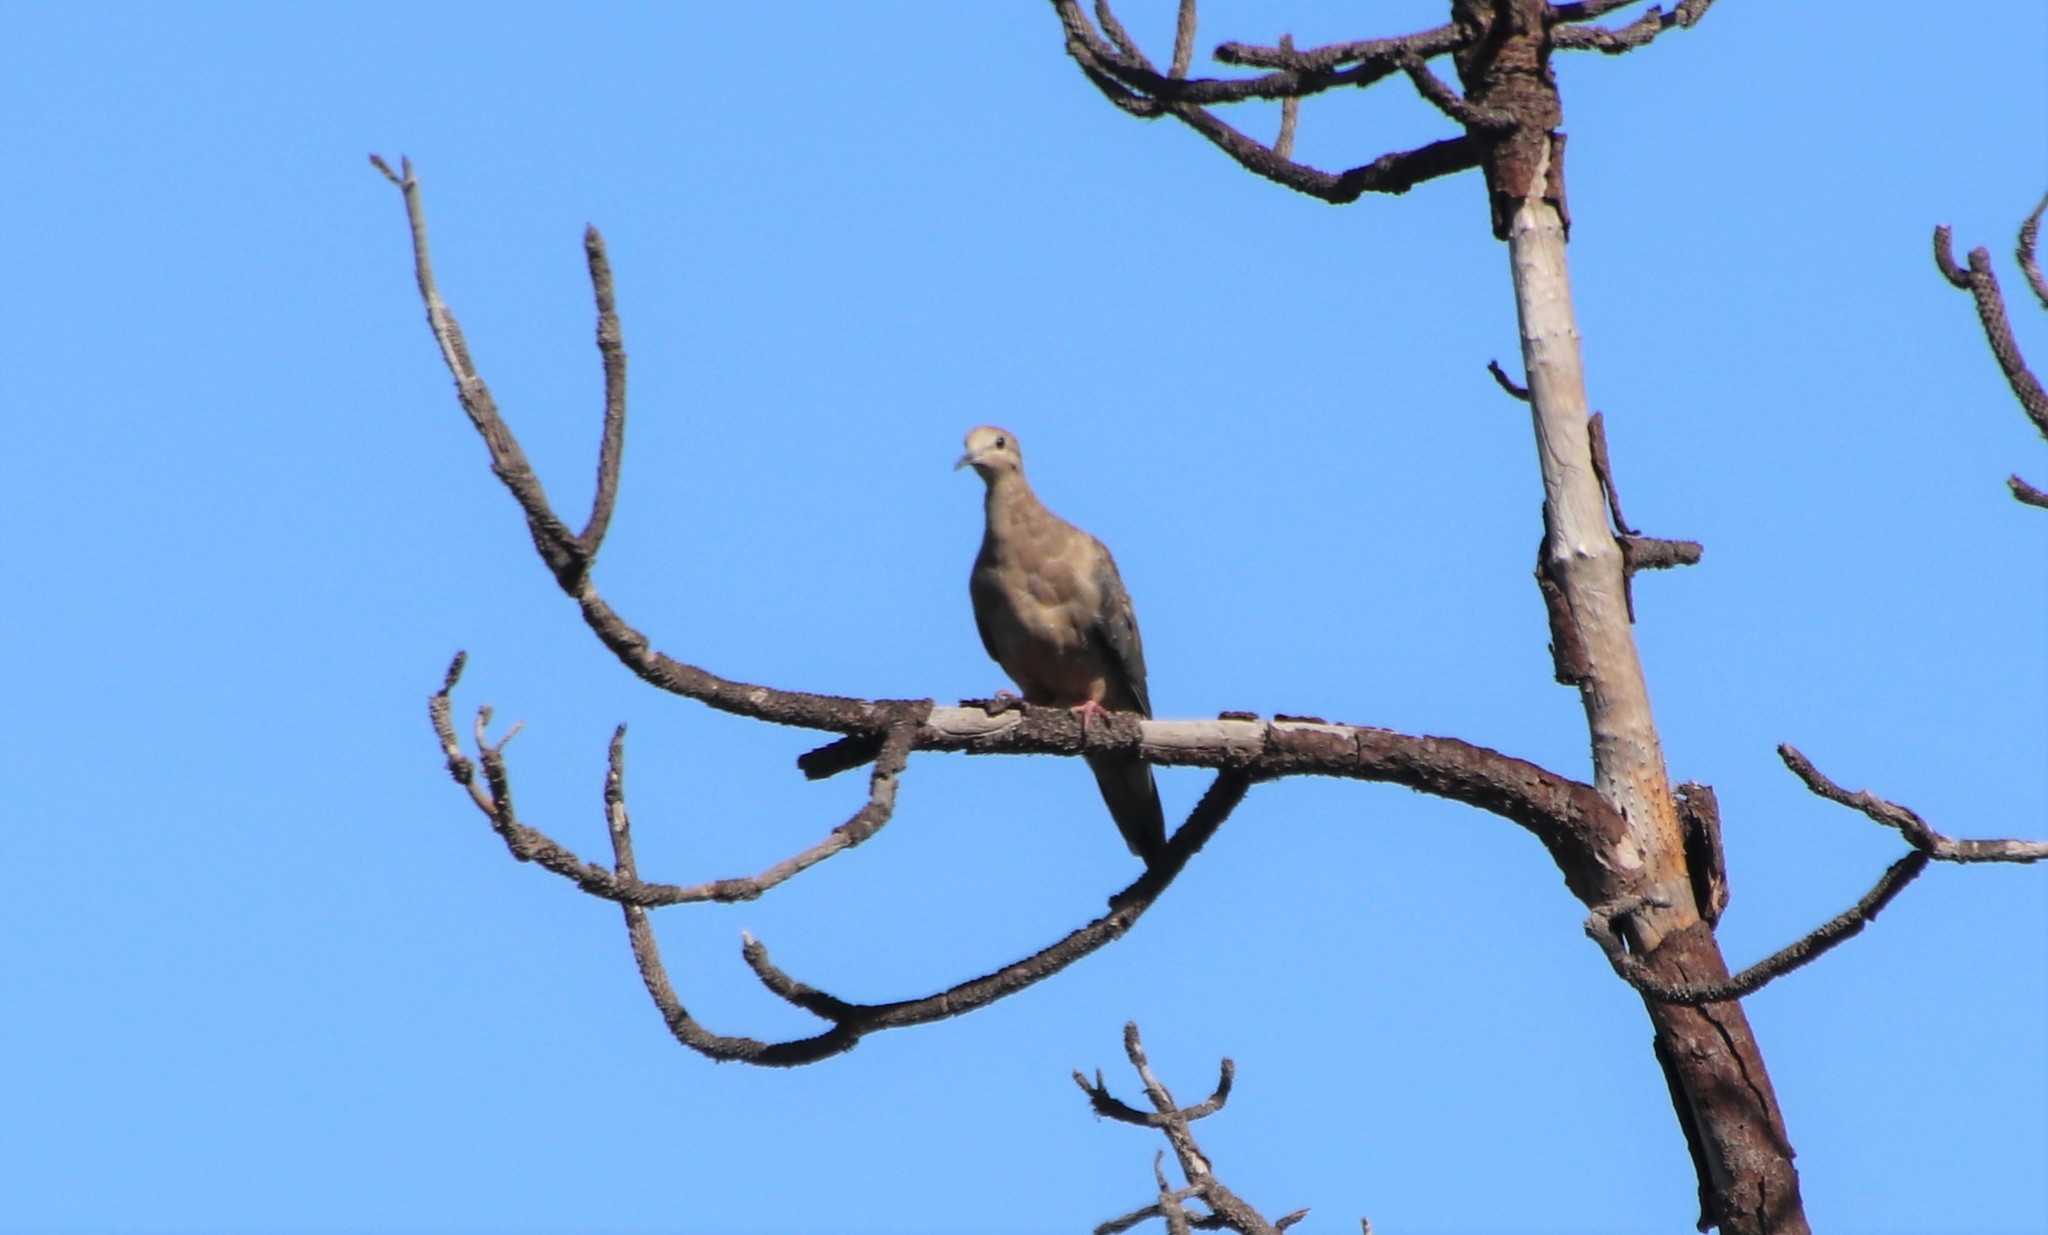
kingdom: Animalia
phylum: Chordata
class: Aves
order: Columbiformes
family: Columbidae
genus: Zenaida
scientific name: Zenaida macroura
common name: Mourning dove
